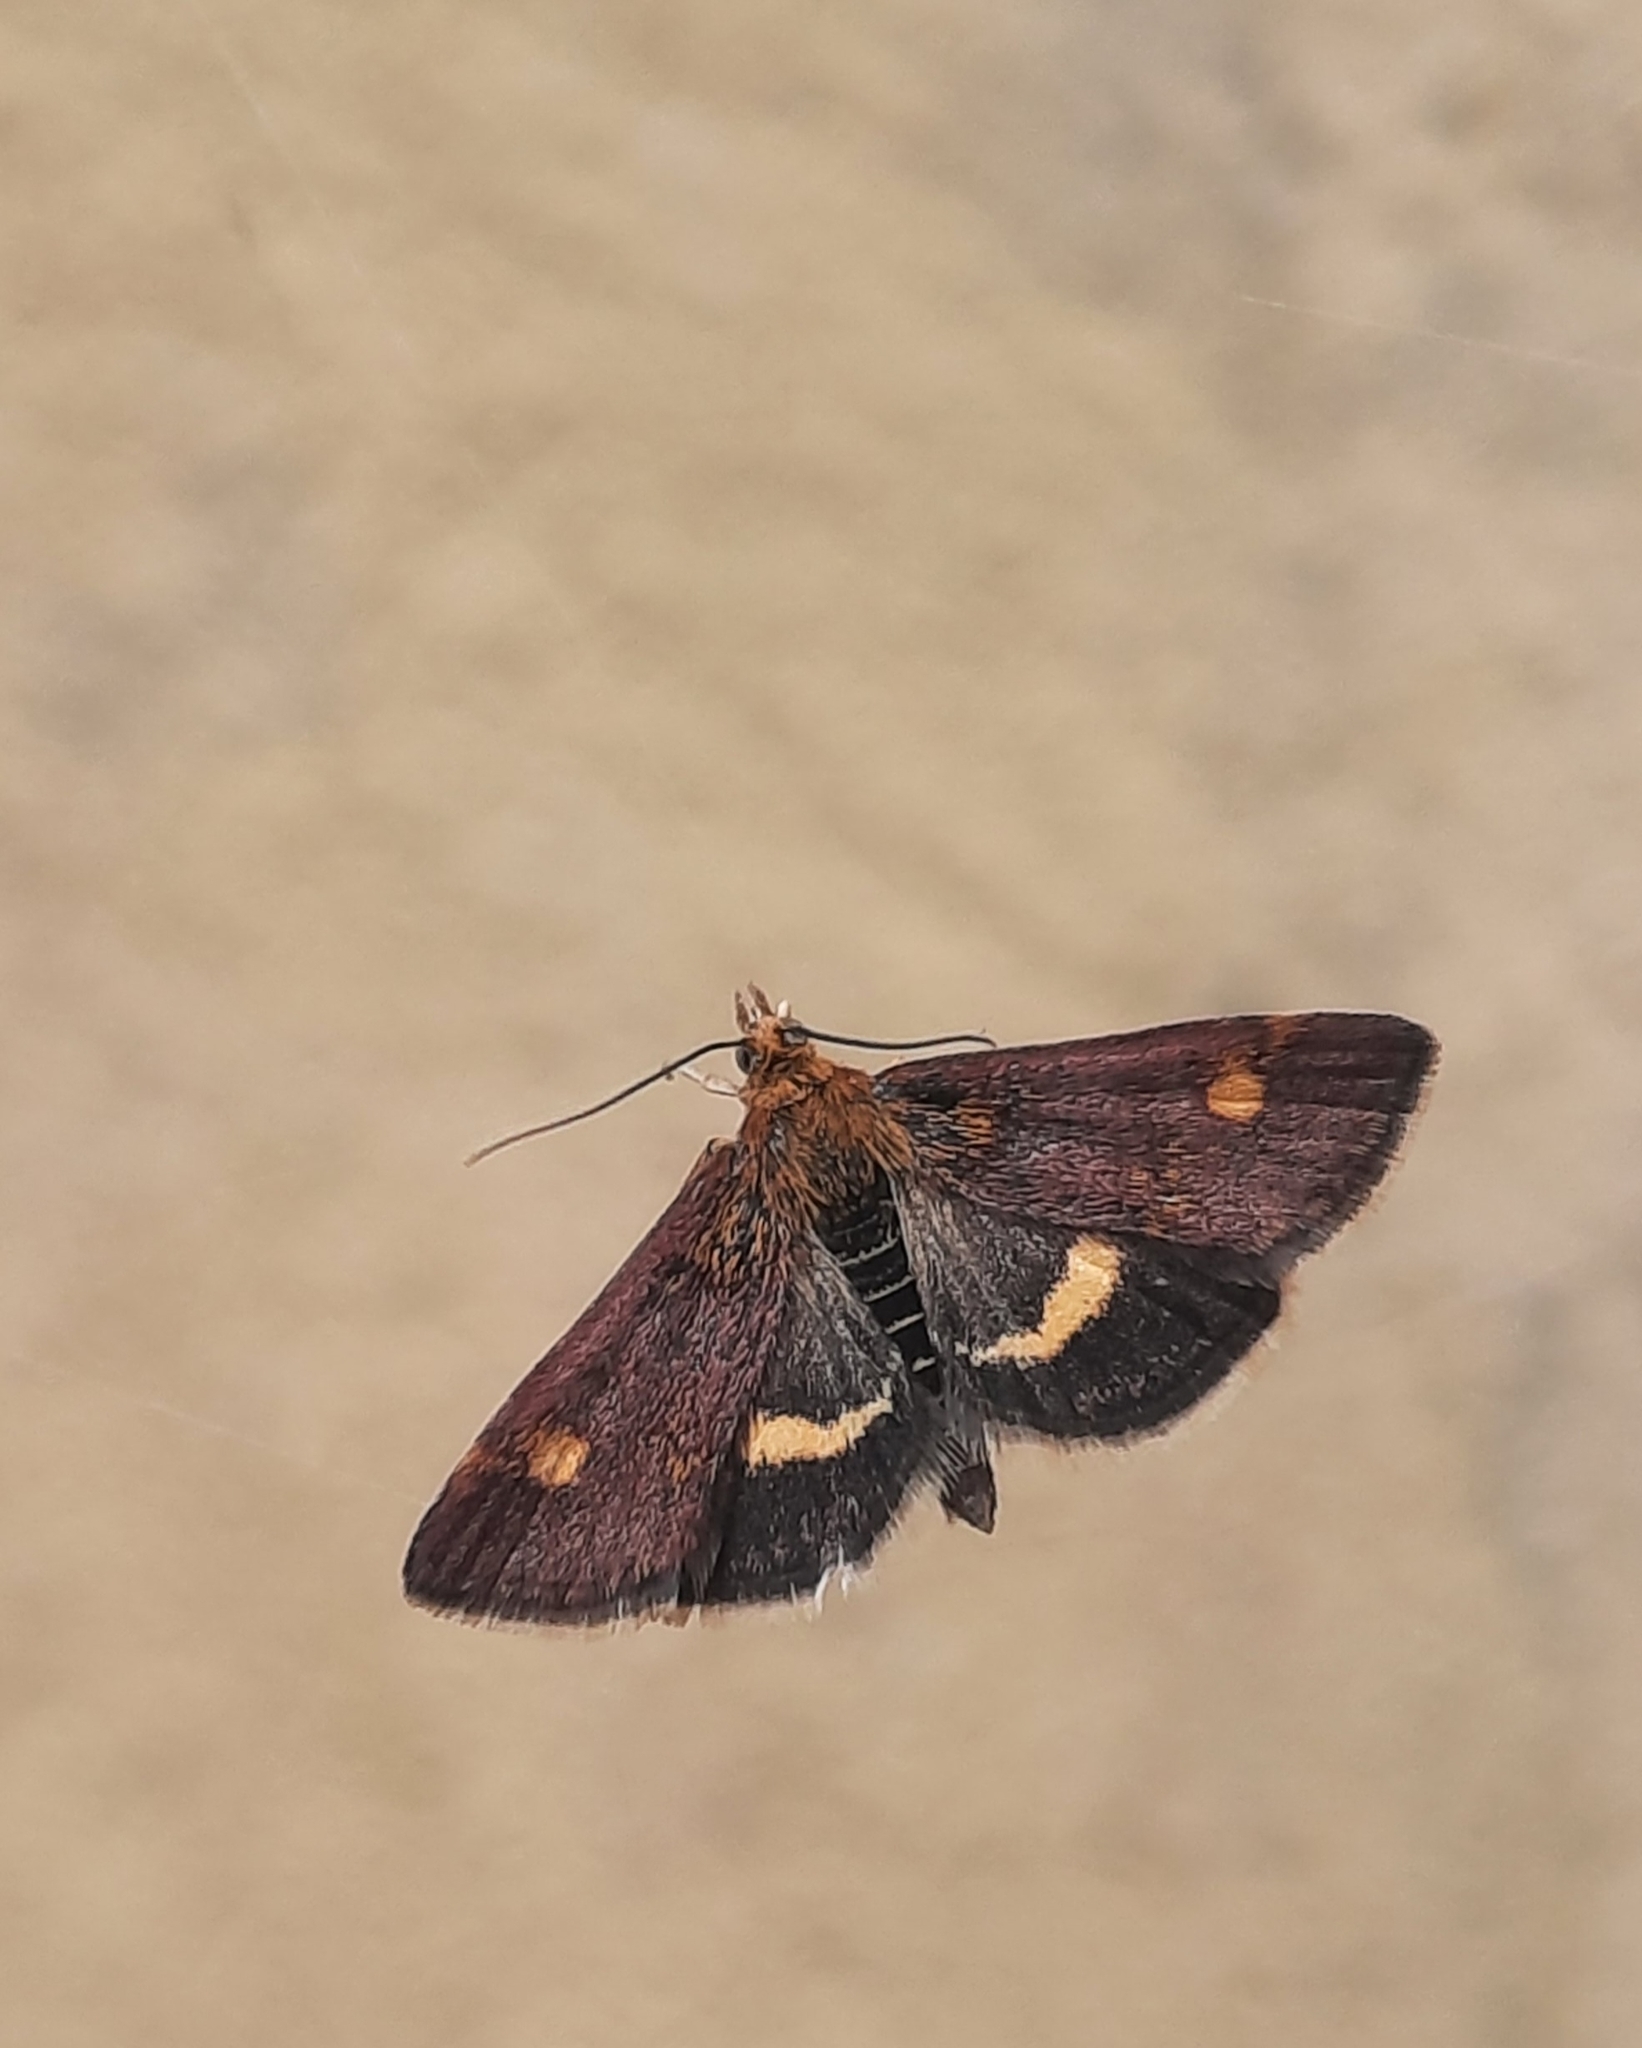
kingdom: Animalia
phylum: Arthropoda
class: Insecta
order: Lepidoptera
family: Crambidae
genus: Pyrausta
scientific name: Pyrausta aurata
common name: Small purple & gold
